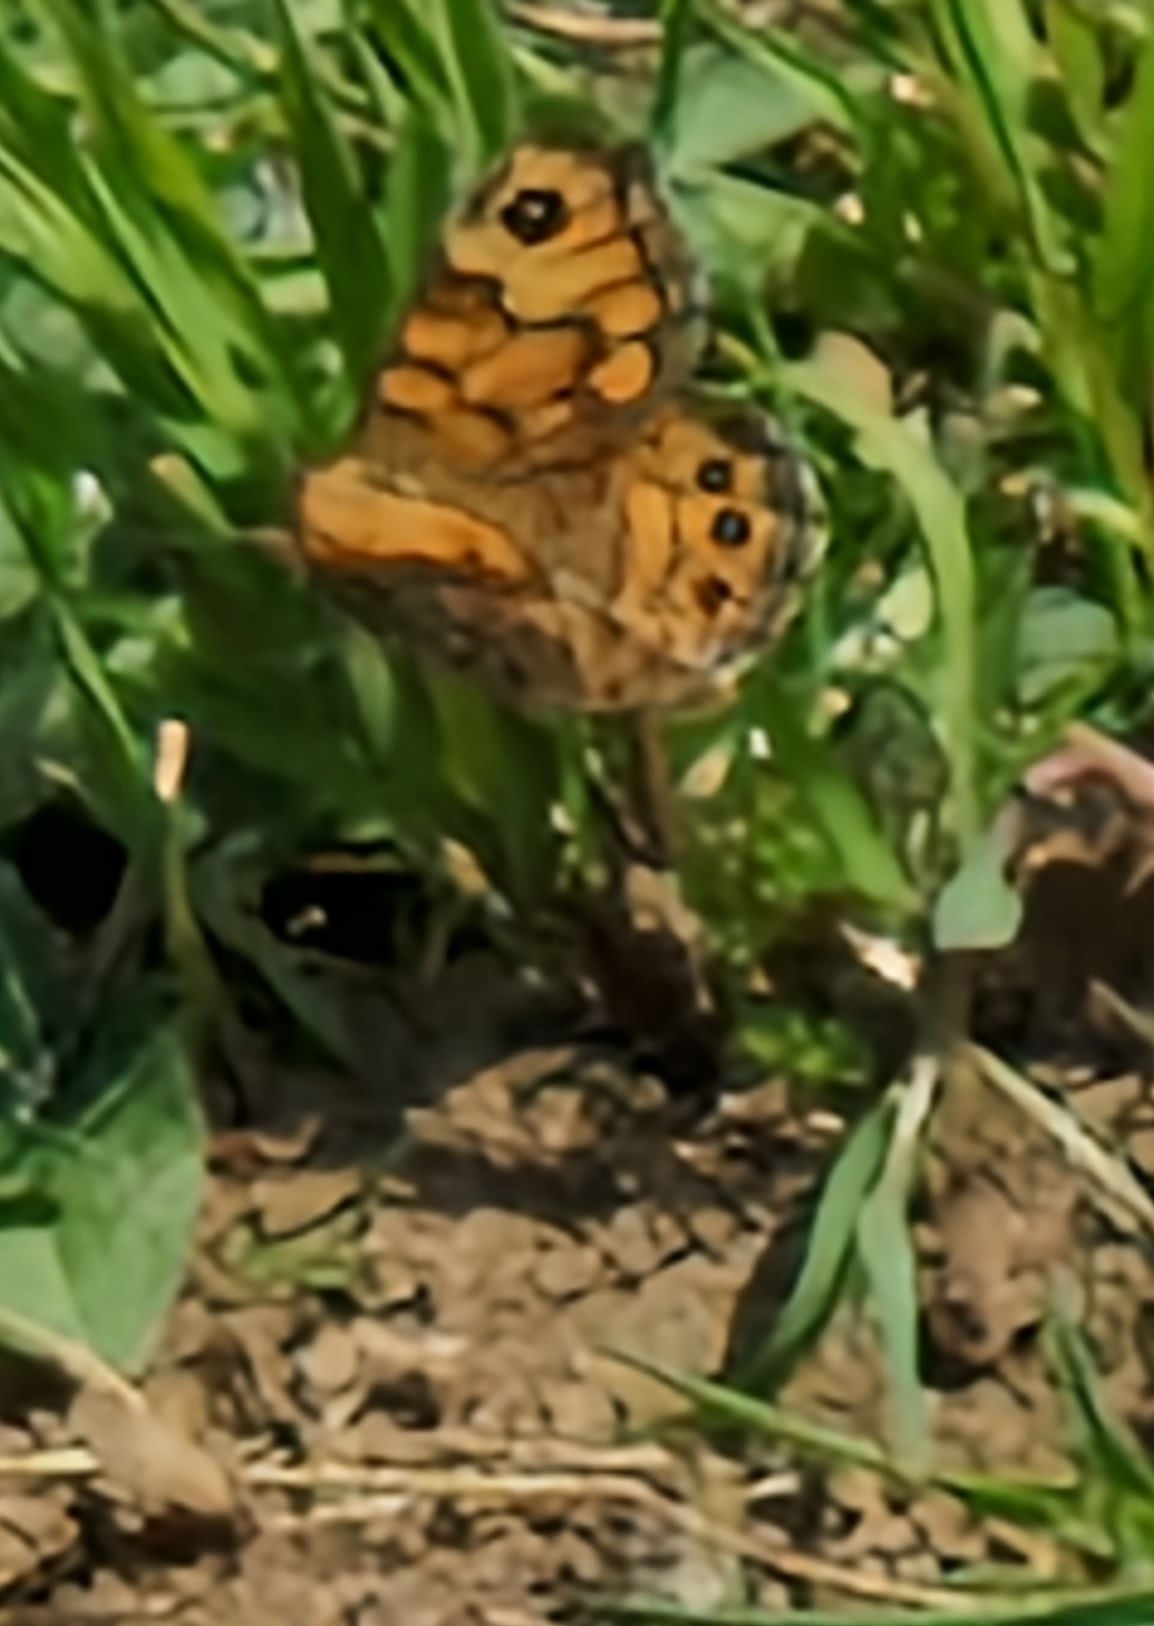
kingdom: Animalia
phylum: Arthropoda
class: Insecta
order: Lepidoptera
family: Nymphalidae
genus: Pararge
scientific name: Pararge Lasiommata megera
